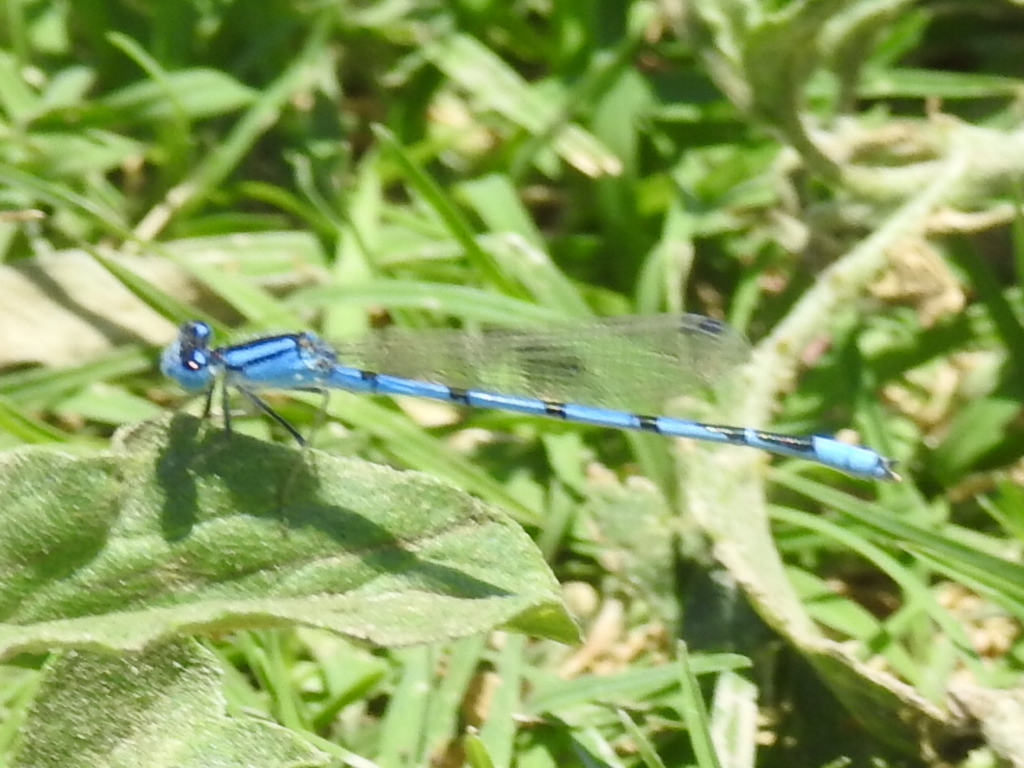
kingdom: Animalia
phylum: Arthropoda
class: Insecta
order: Odonata
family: Coenagrionidae
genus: Enallagma
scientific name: Enallagma civile
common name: Damselfly
